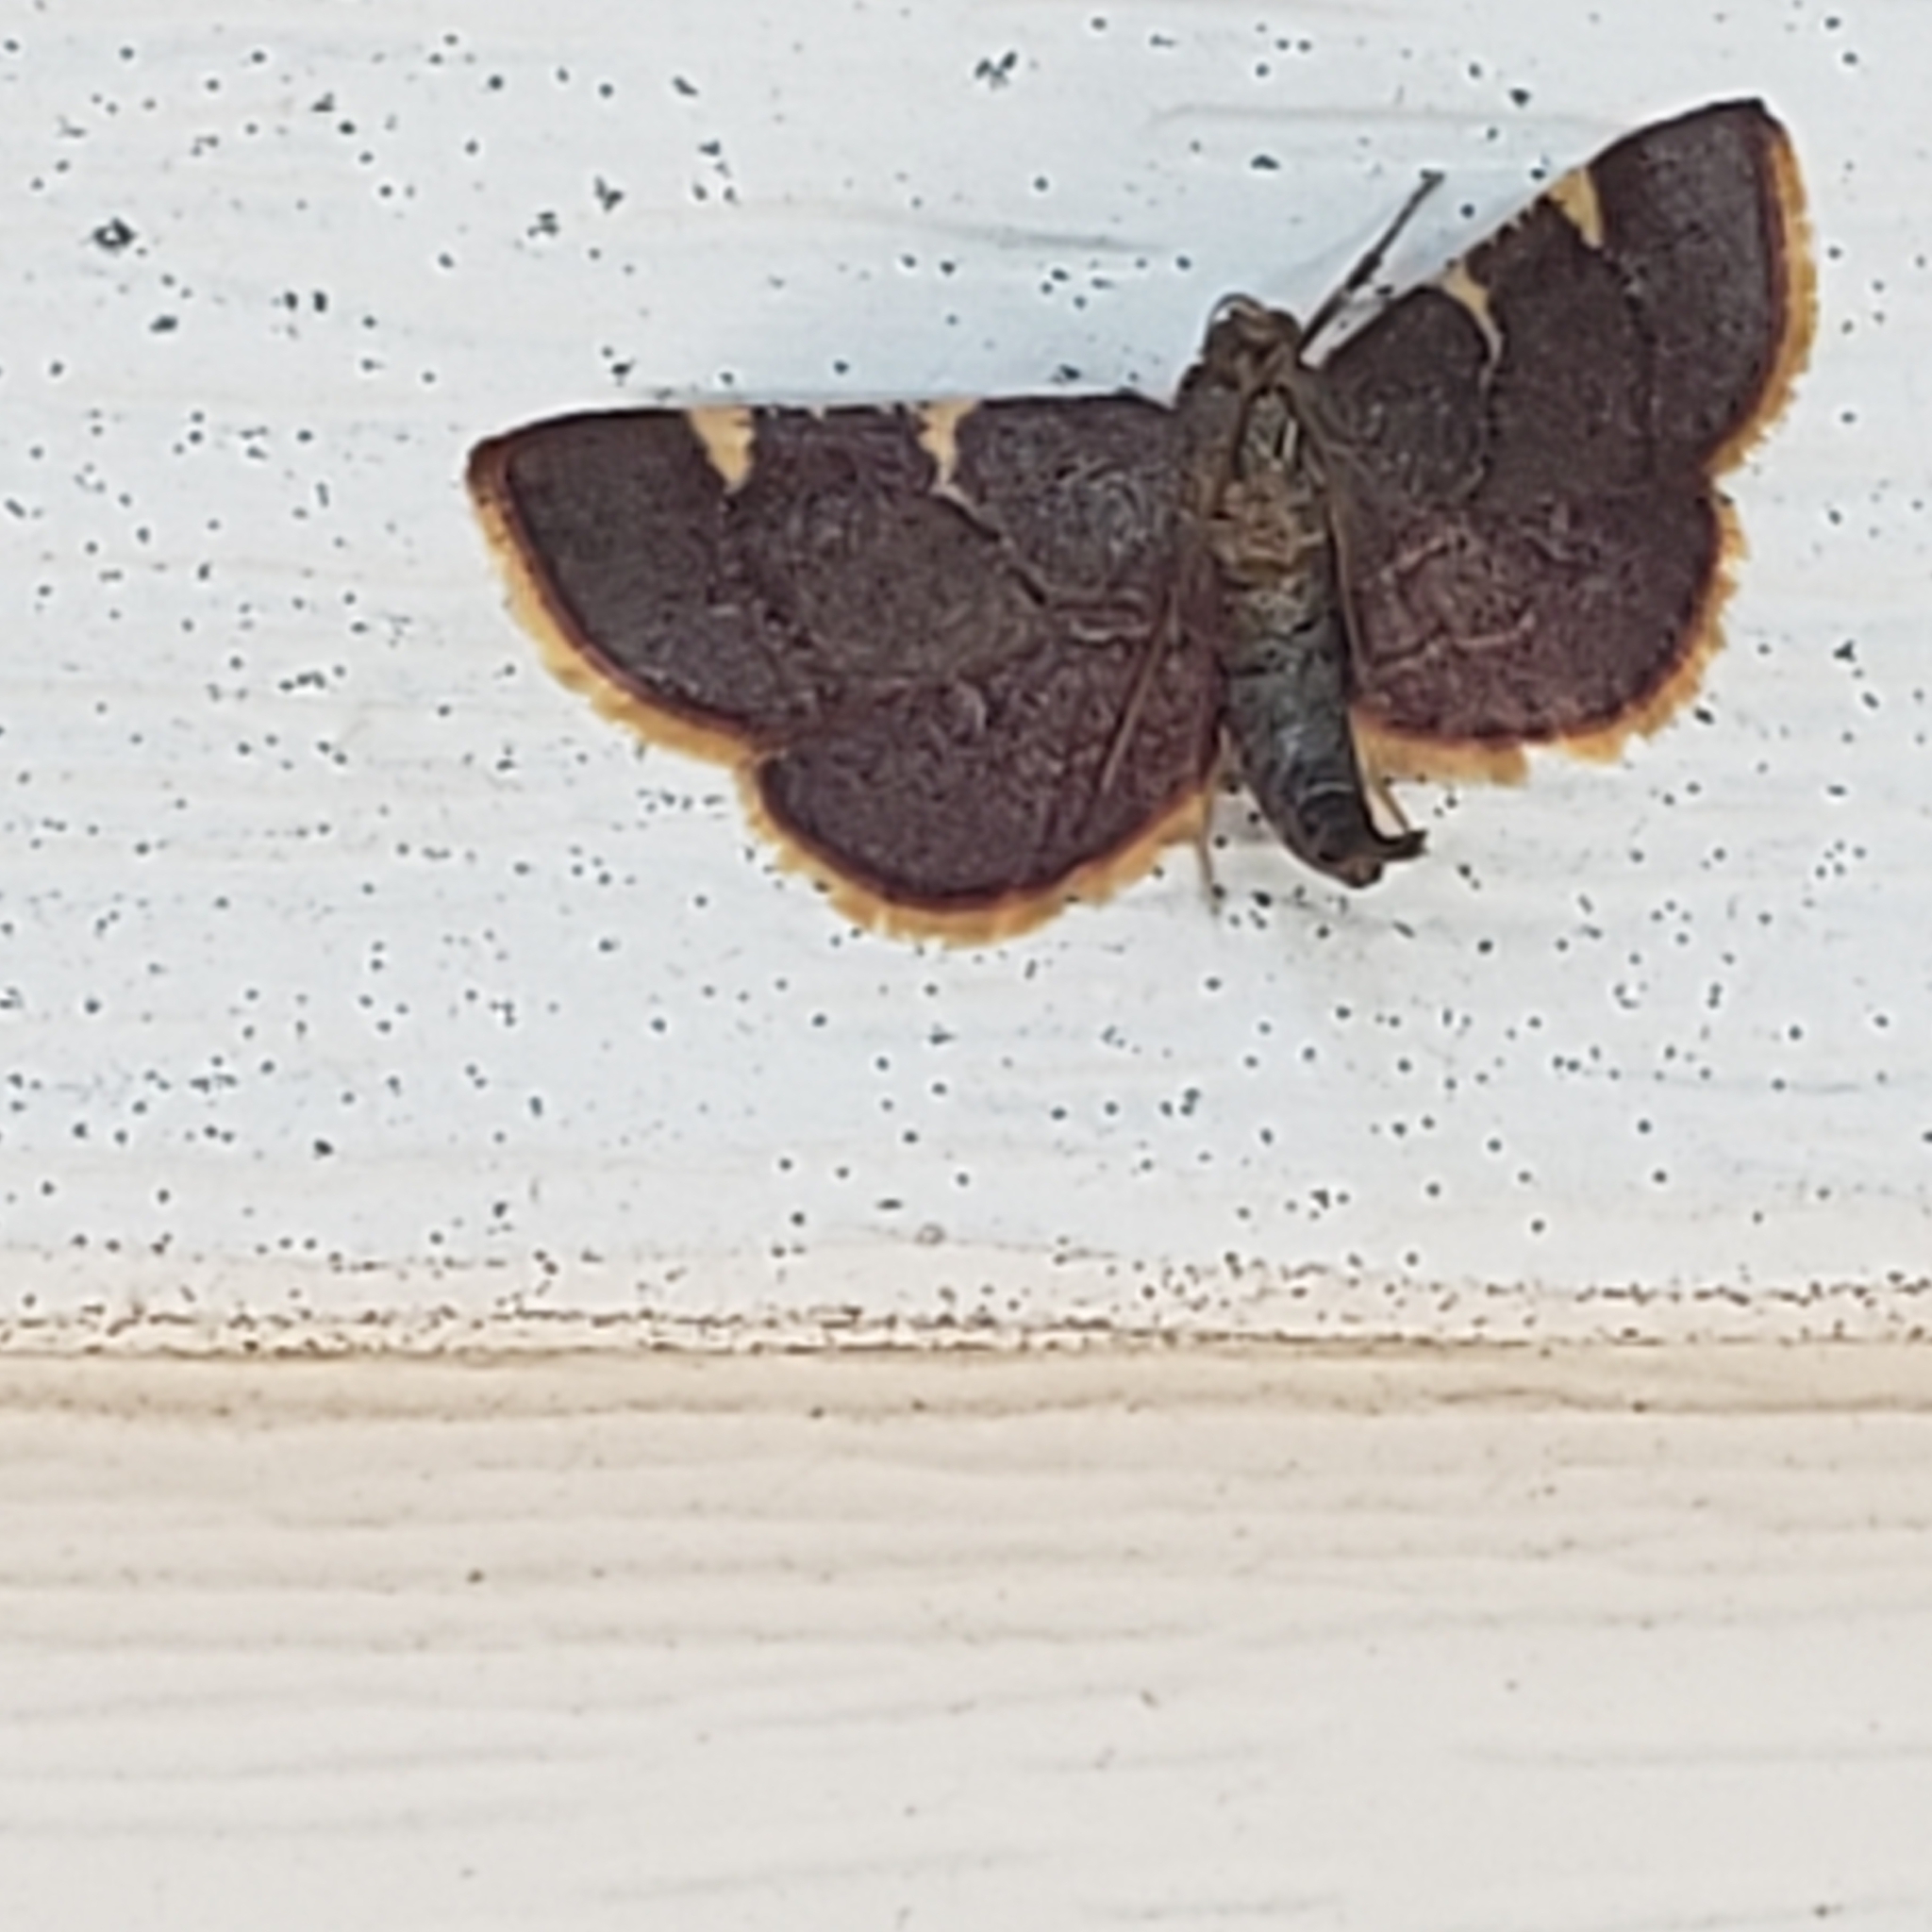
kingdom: Animalia
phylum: Arthropoda
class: Insecta
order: Lepidoptera
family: Pyralidae
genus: Hypsopygia
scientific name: Hypsopygia olinalis
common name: Yellow-fringed dolichomia moth
